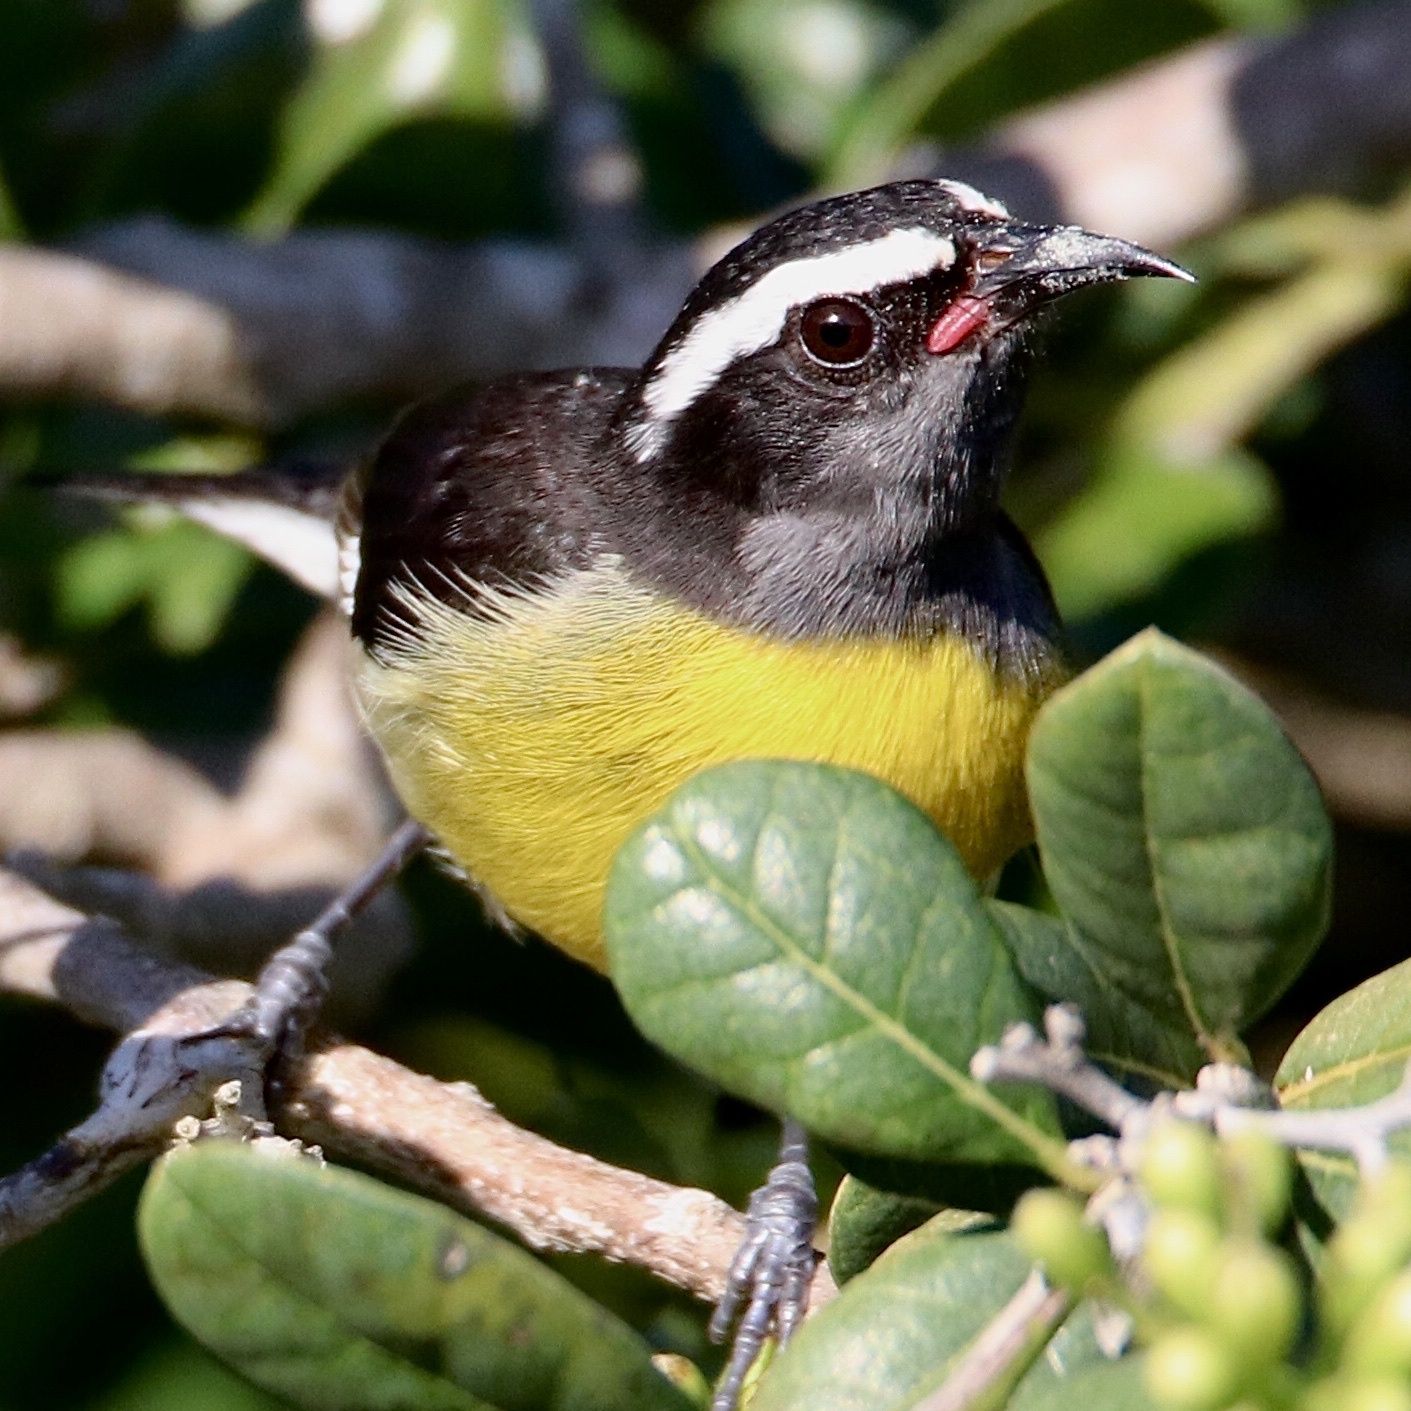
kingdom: Animalia
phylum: Chordata
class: Aves
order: Passeriformes
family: Thraupidae
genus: Coereba
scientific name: Coereba flaveola
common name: Bananaquit
